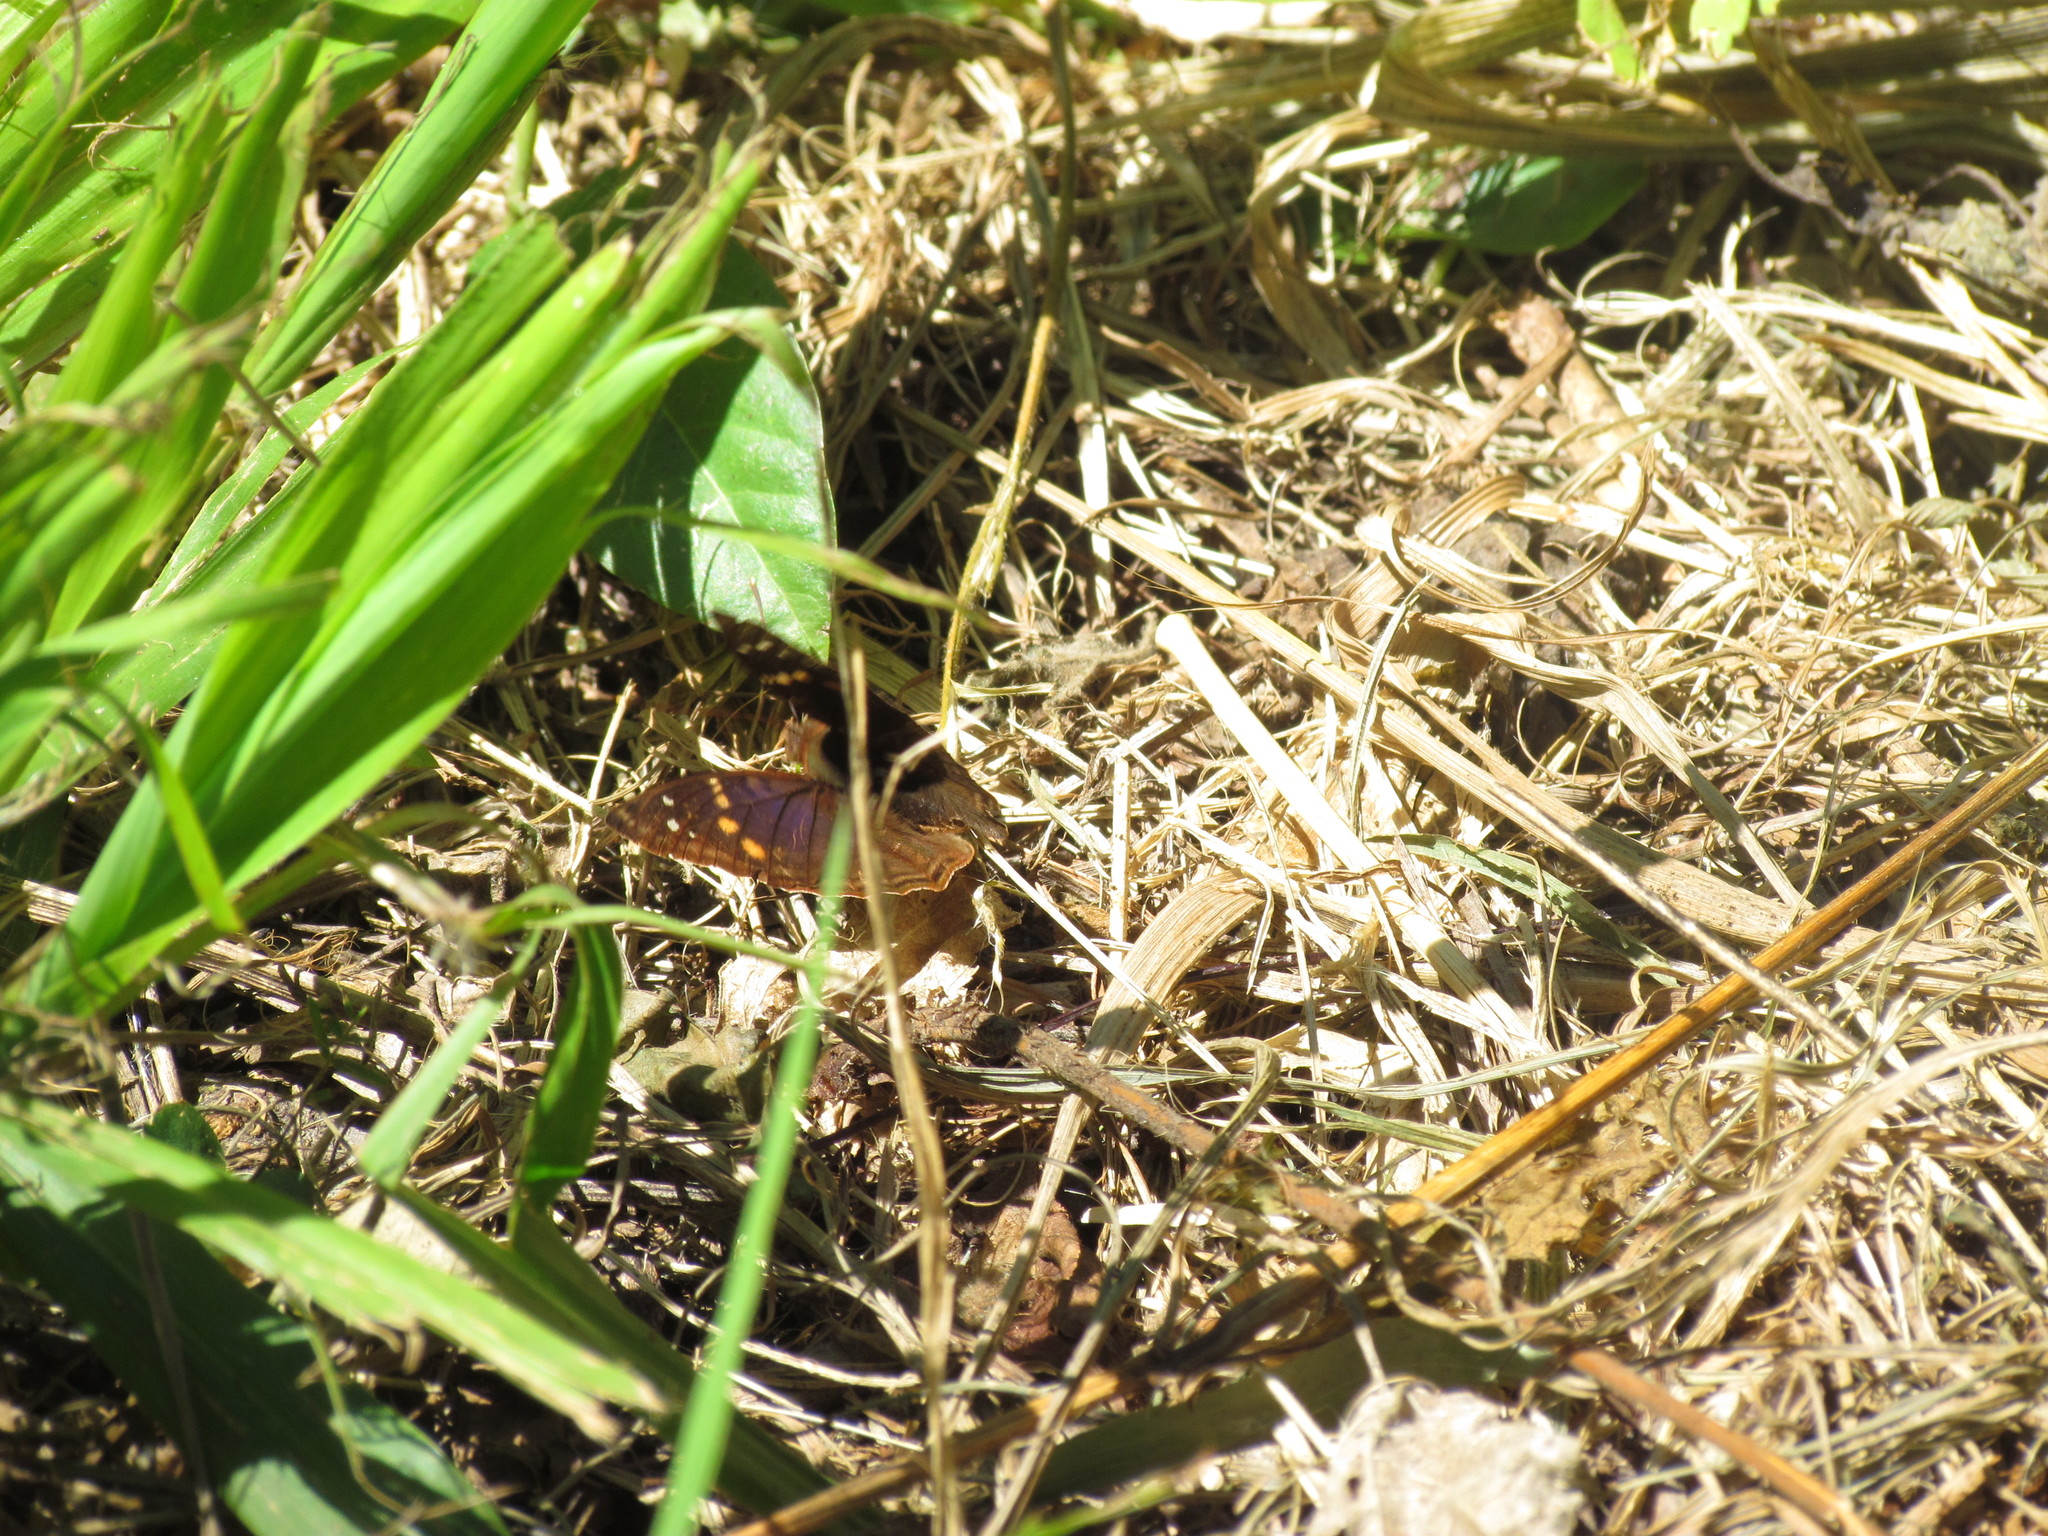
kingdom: Animalia
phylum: Arthropoda
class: Insecta
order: Lepidoptera
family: Nymphalidae
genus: Doxocopa
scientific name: Doxocopa agathina
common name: Agathina emperor
